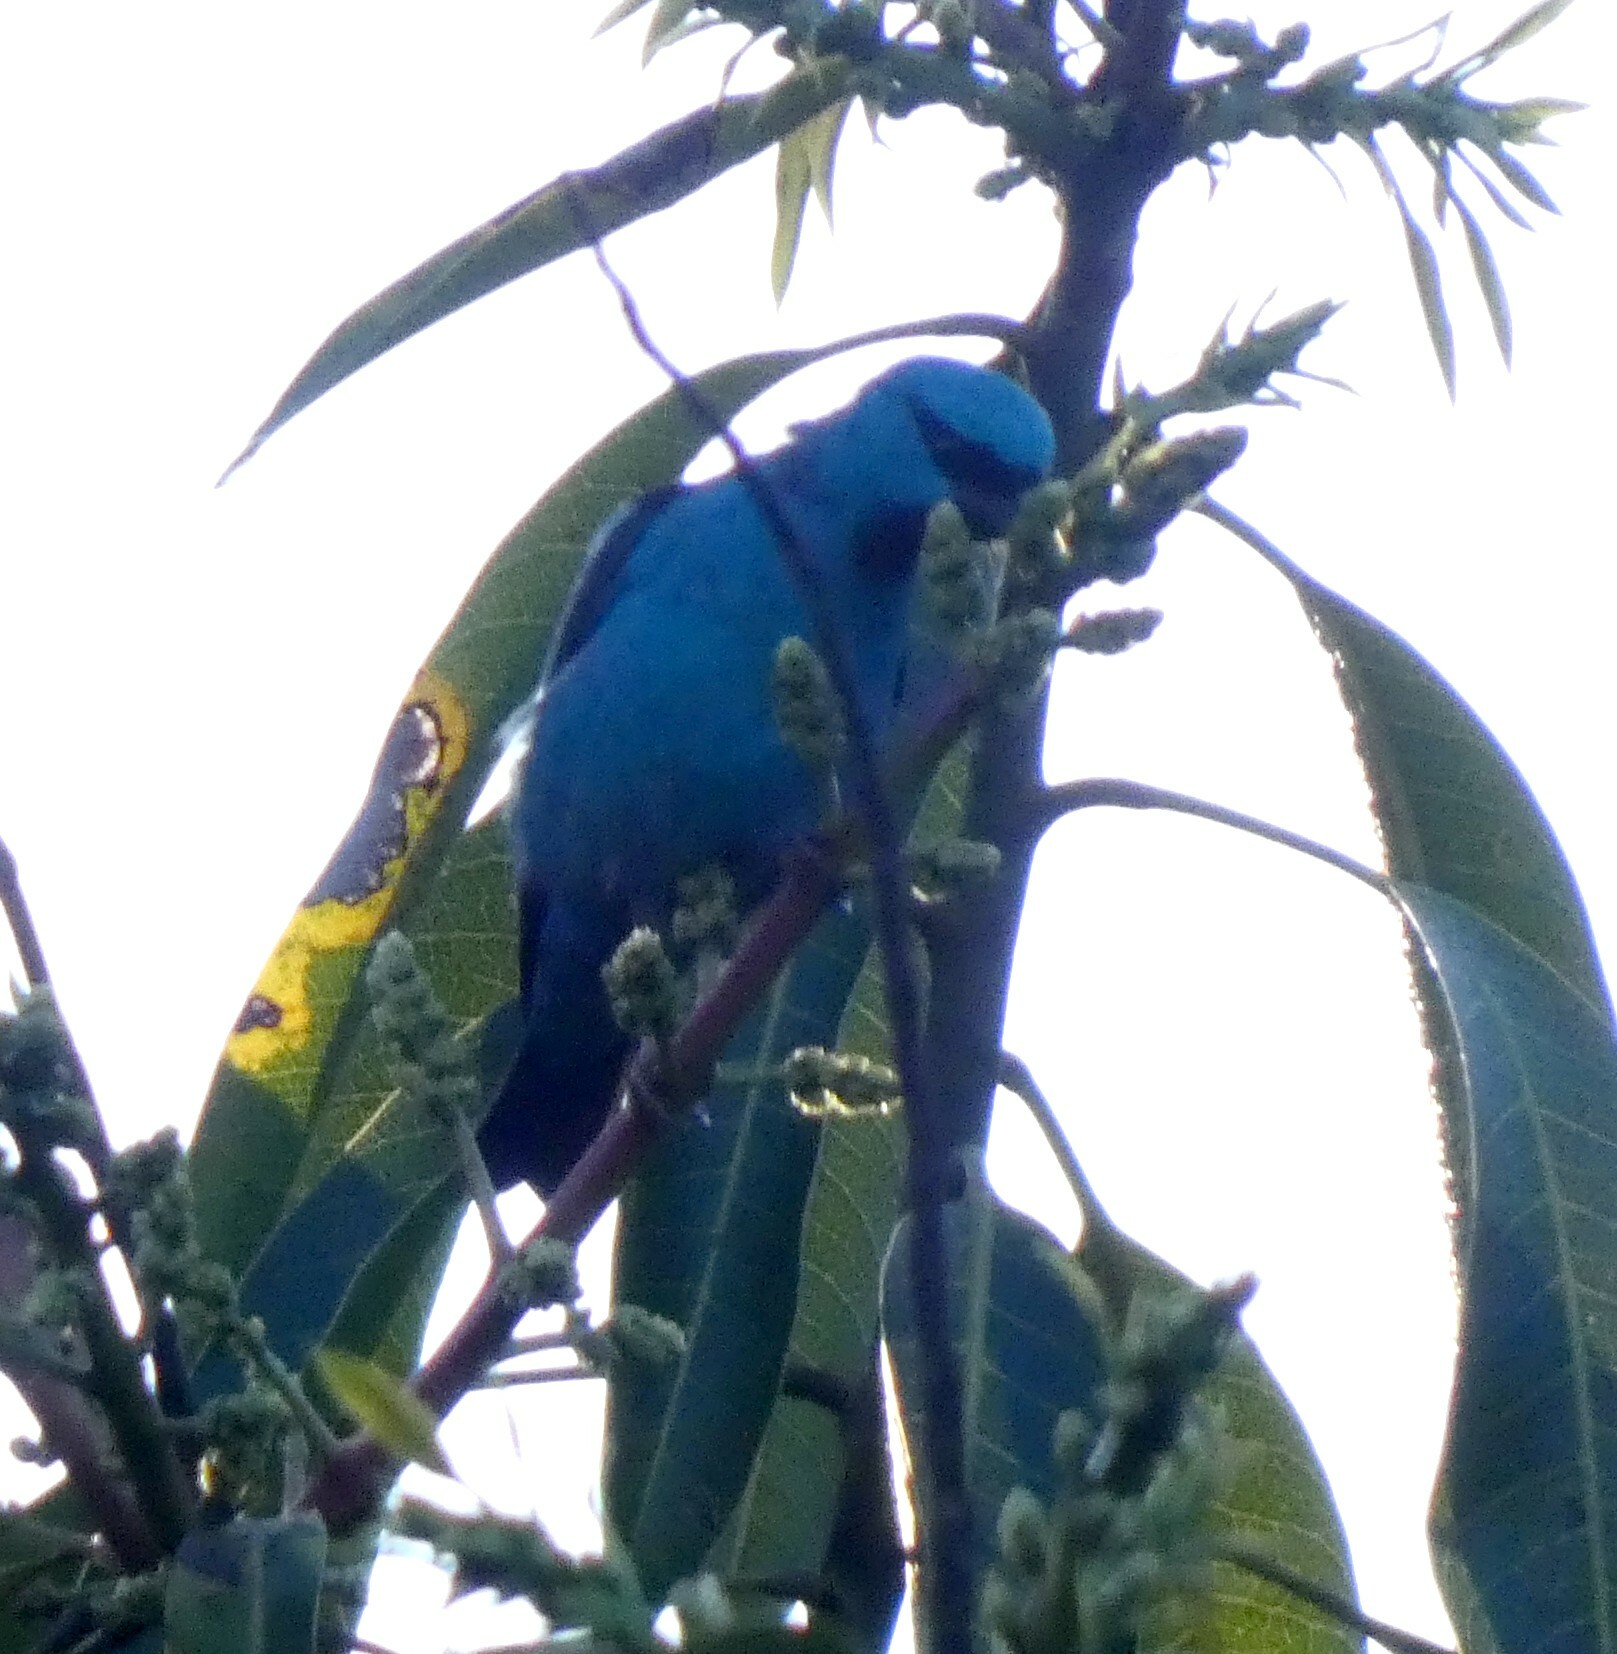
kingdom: Animalia
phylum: Chordata
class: Aves
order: Passeriformes
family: Thraupidae
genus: Dacnis
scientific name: Dacnis cayana
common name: Blue dacnis
